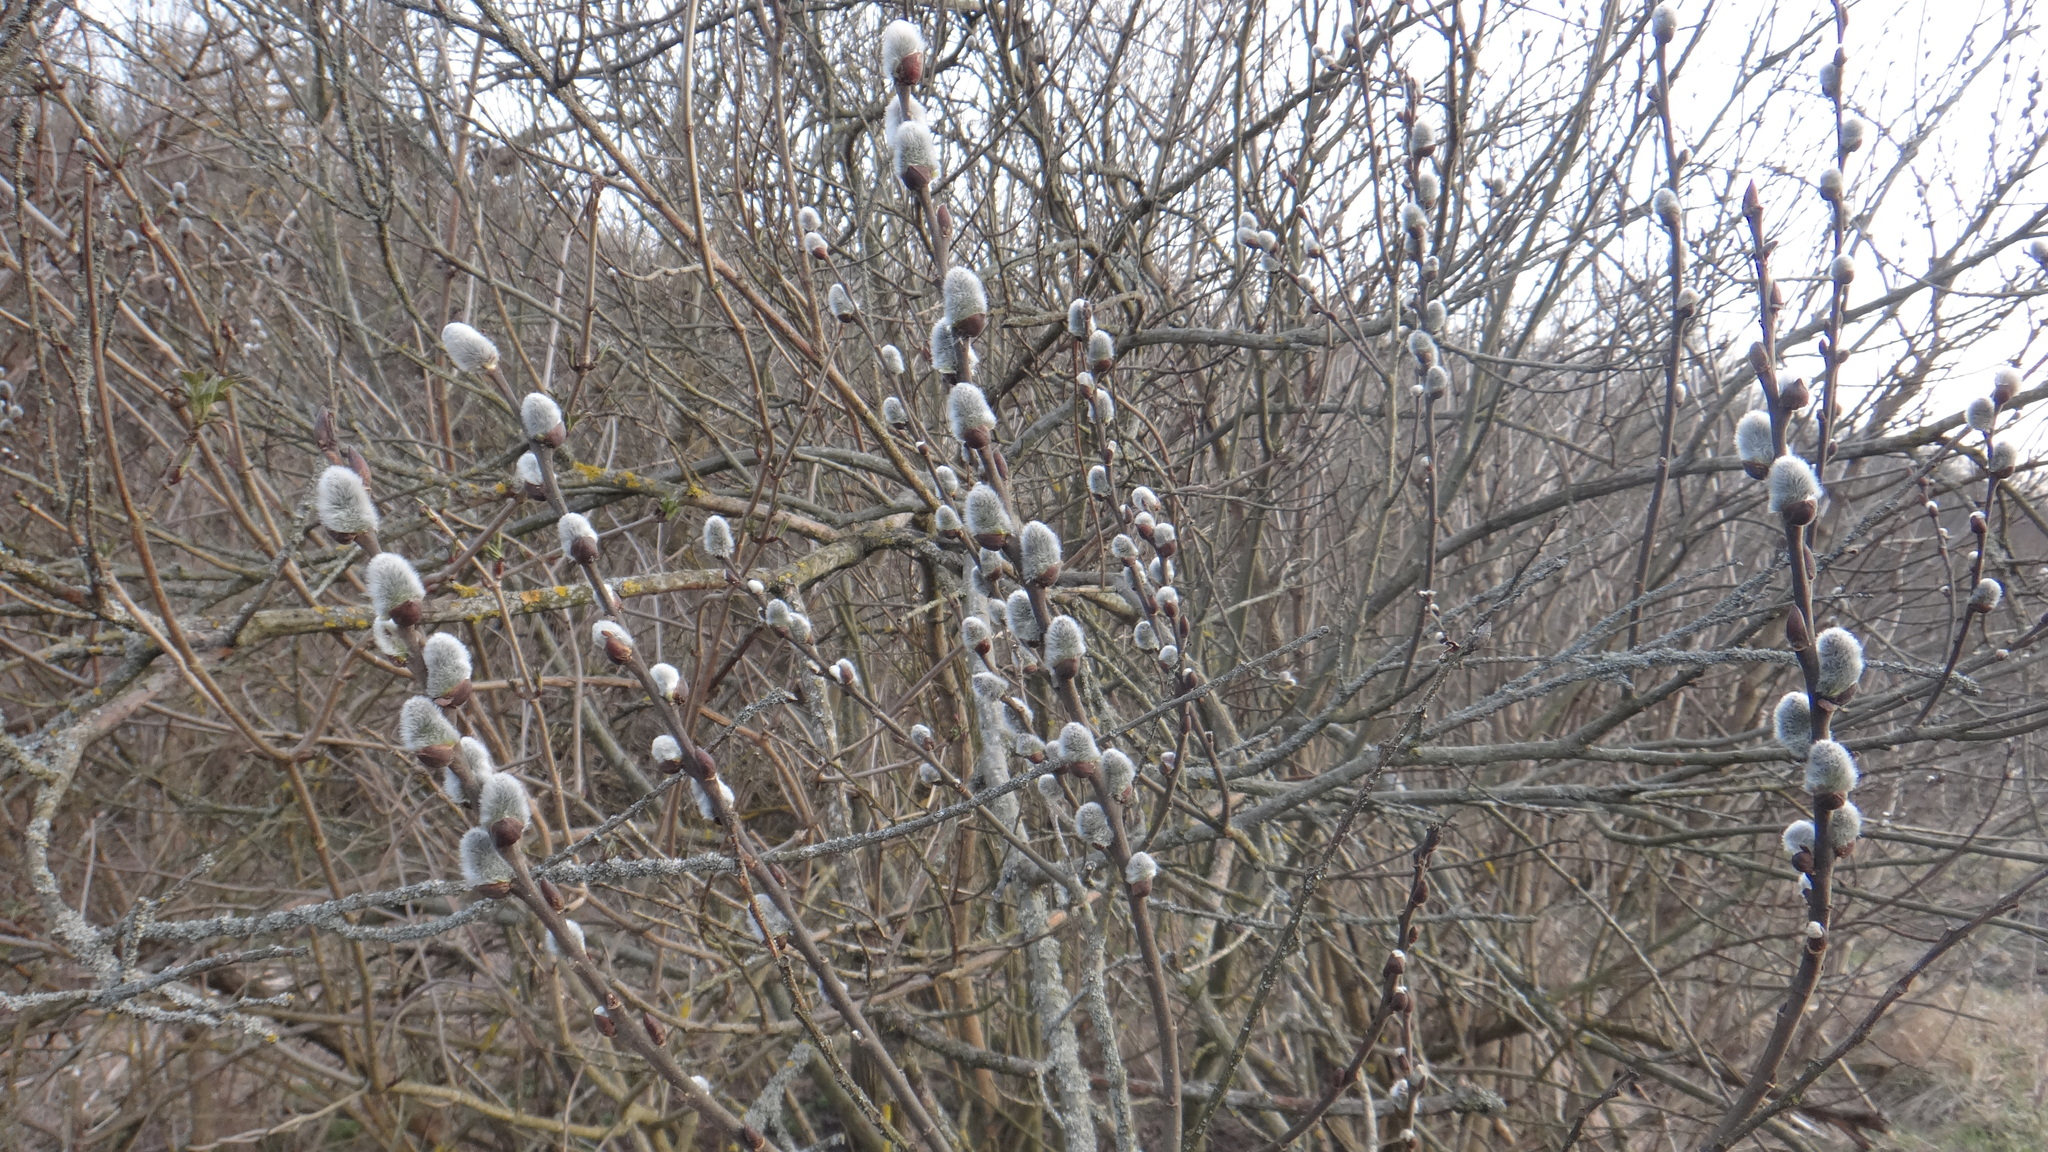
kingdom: Plantae
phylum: Tracheophyta
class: Magnoliopsida
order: Malpighiales
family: Salicaceae
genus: Salix
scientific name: Salix caprea
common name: Goat willow
